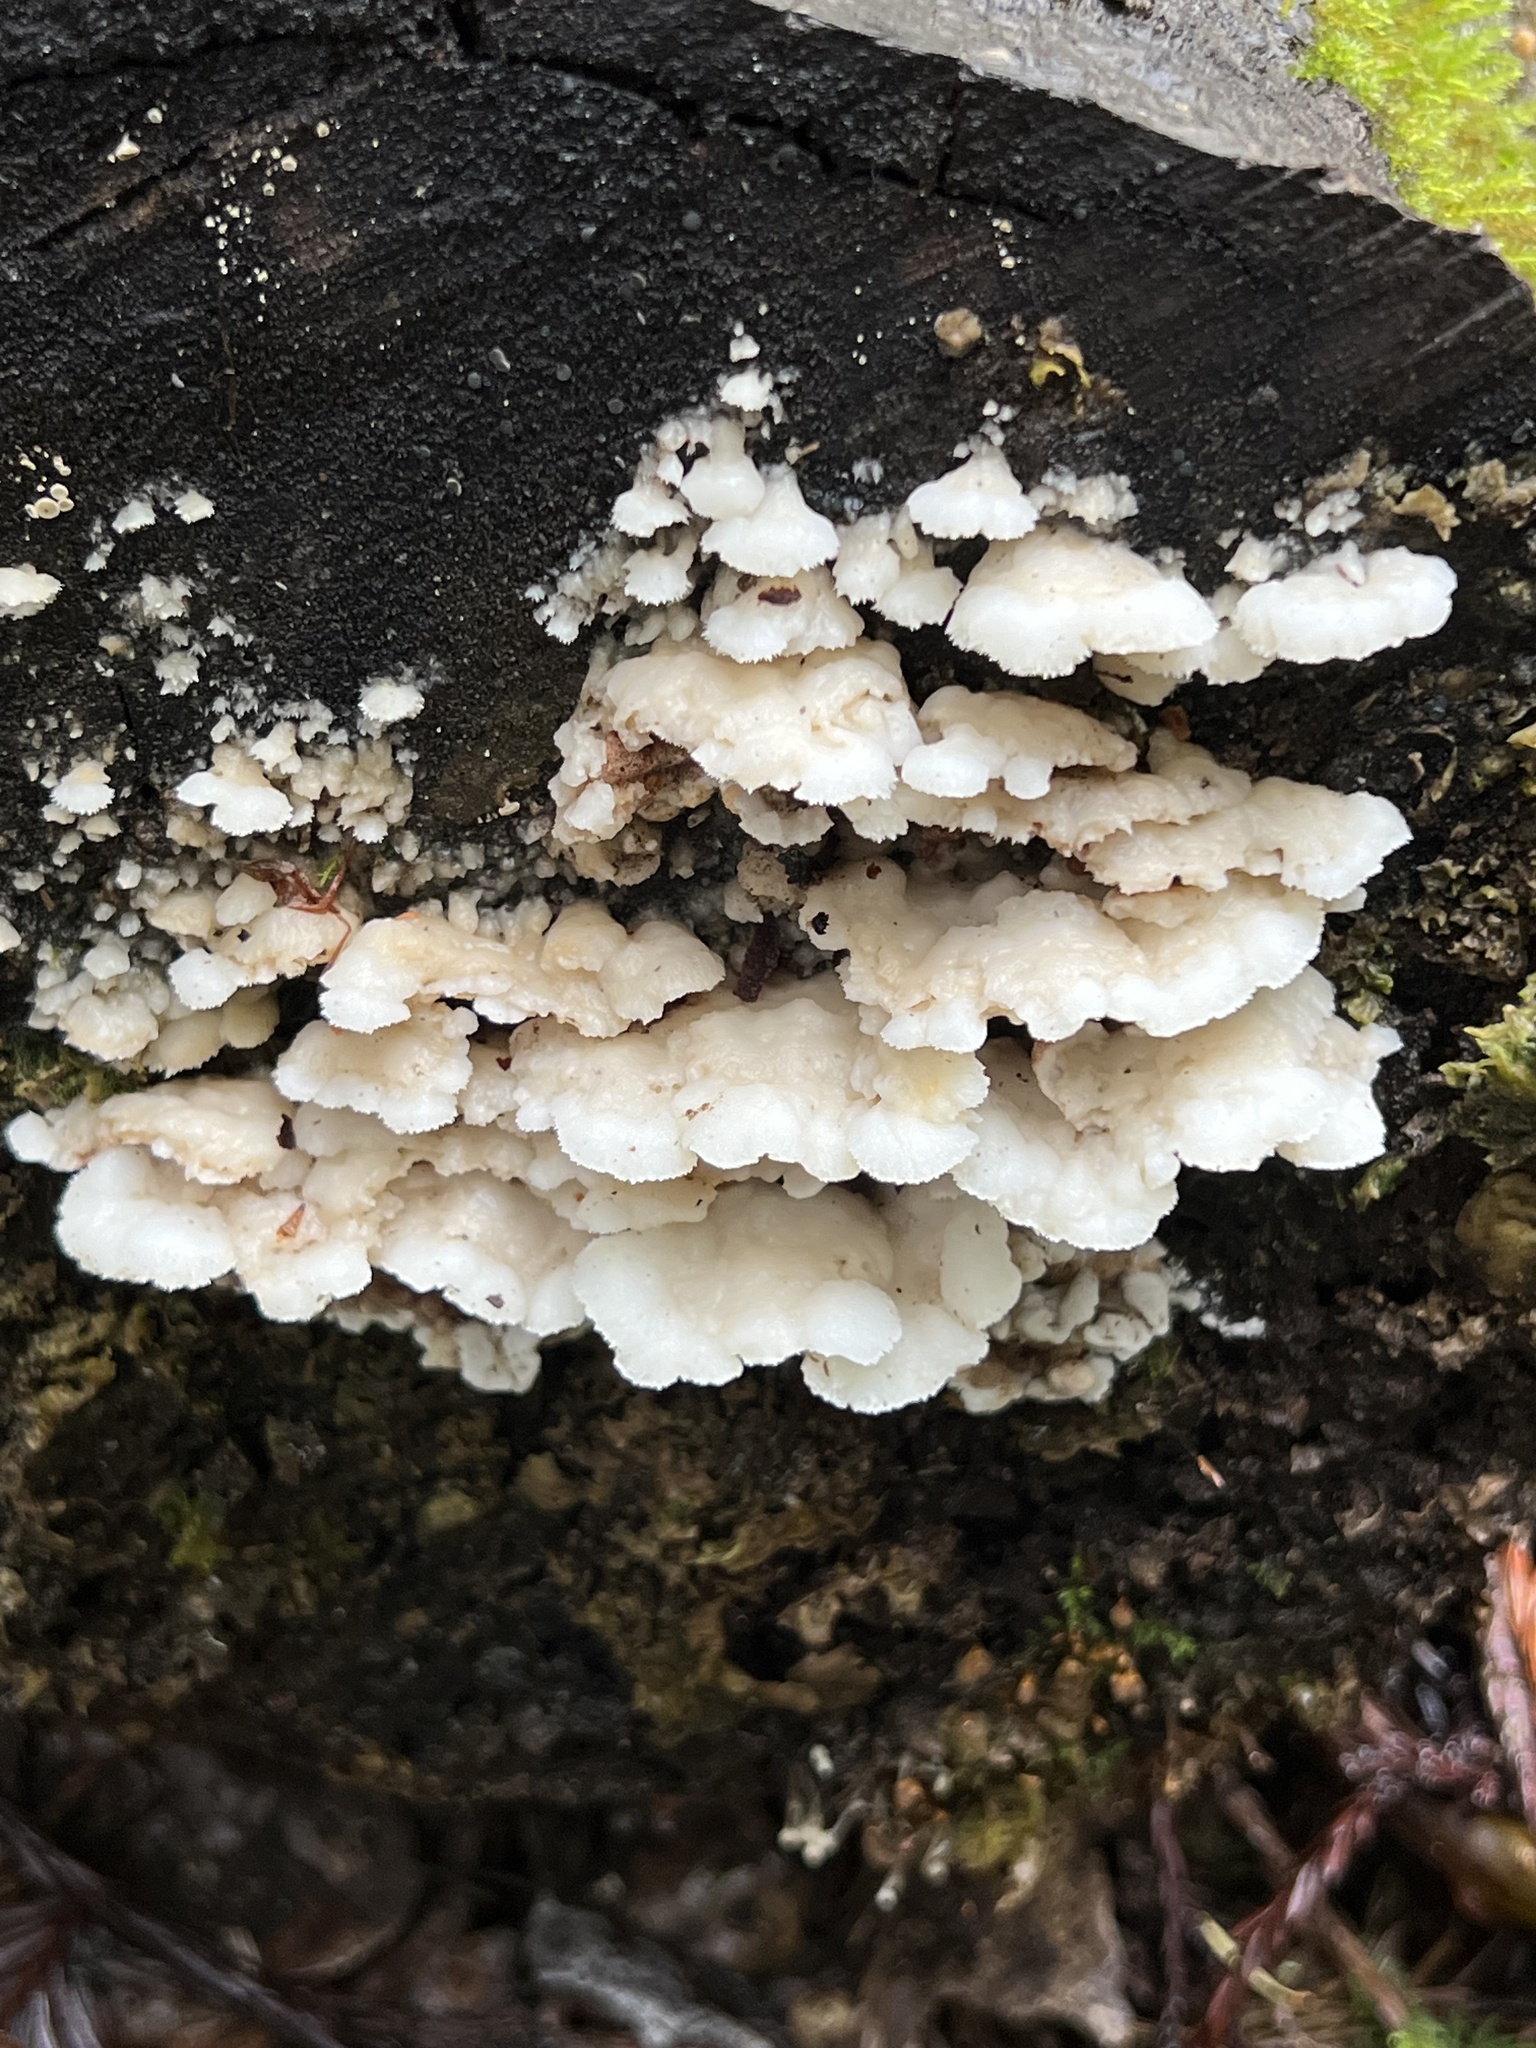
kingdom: Fungi
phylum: Basidiomycota
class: Agaricomycetes
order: Polyporales
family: Irpicaceae
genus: Vitreoporus
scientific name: Vitreoporus dichrous
